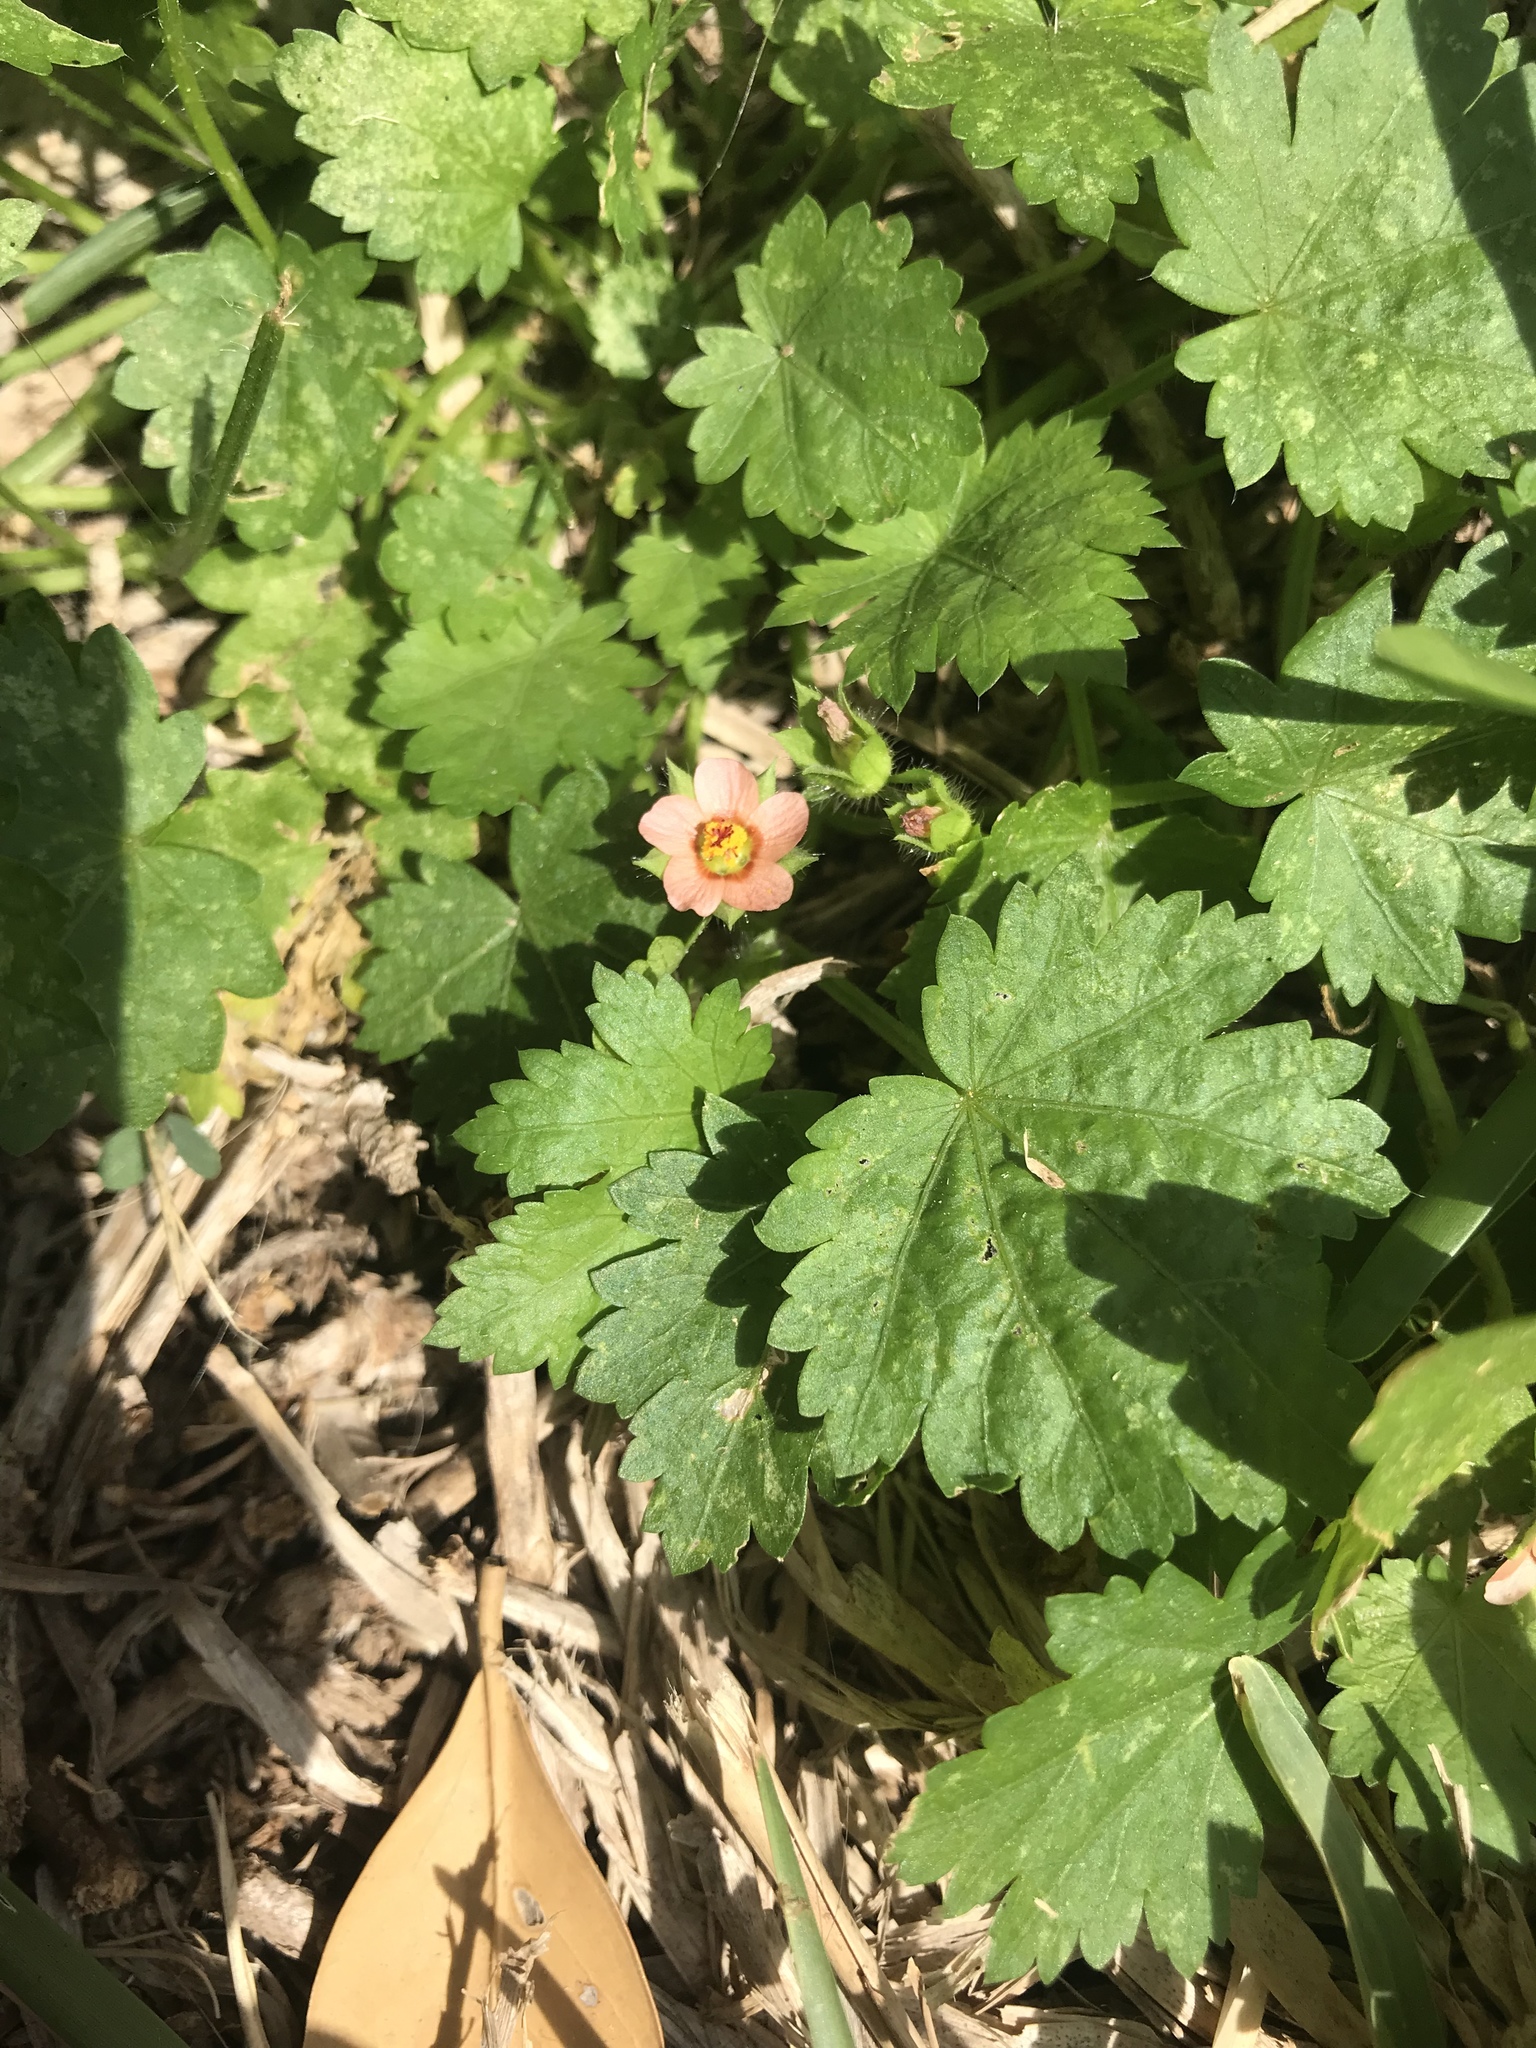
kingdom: Plantae
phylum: Tracheophyta
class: Magnoliopsida
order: Malvales
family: Malvaceae
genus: Modiola
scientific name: Modiola caroliniana
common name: Carolina bristlemallow
